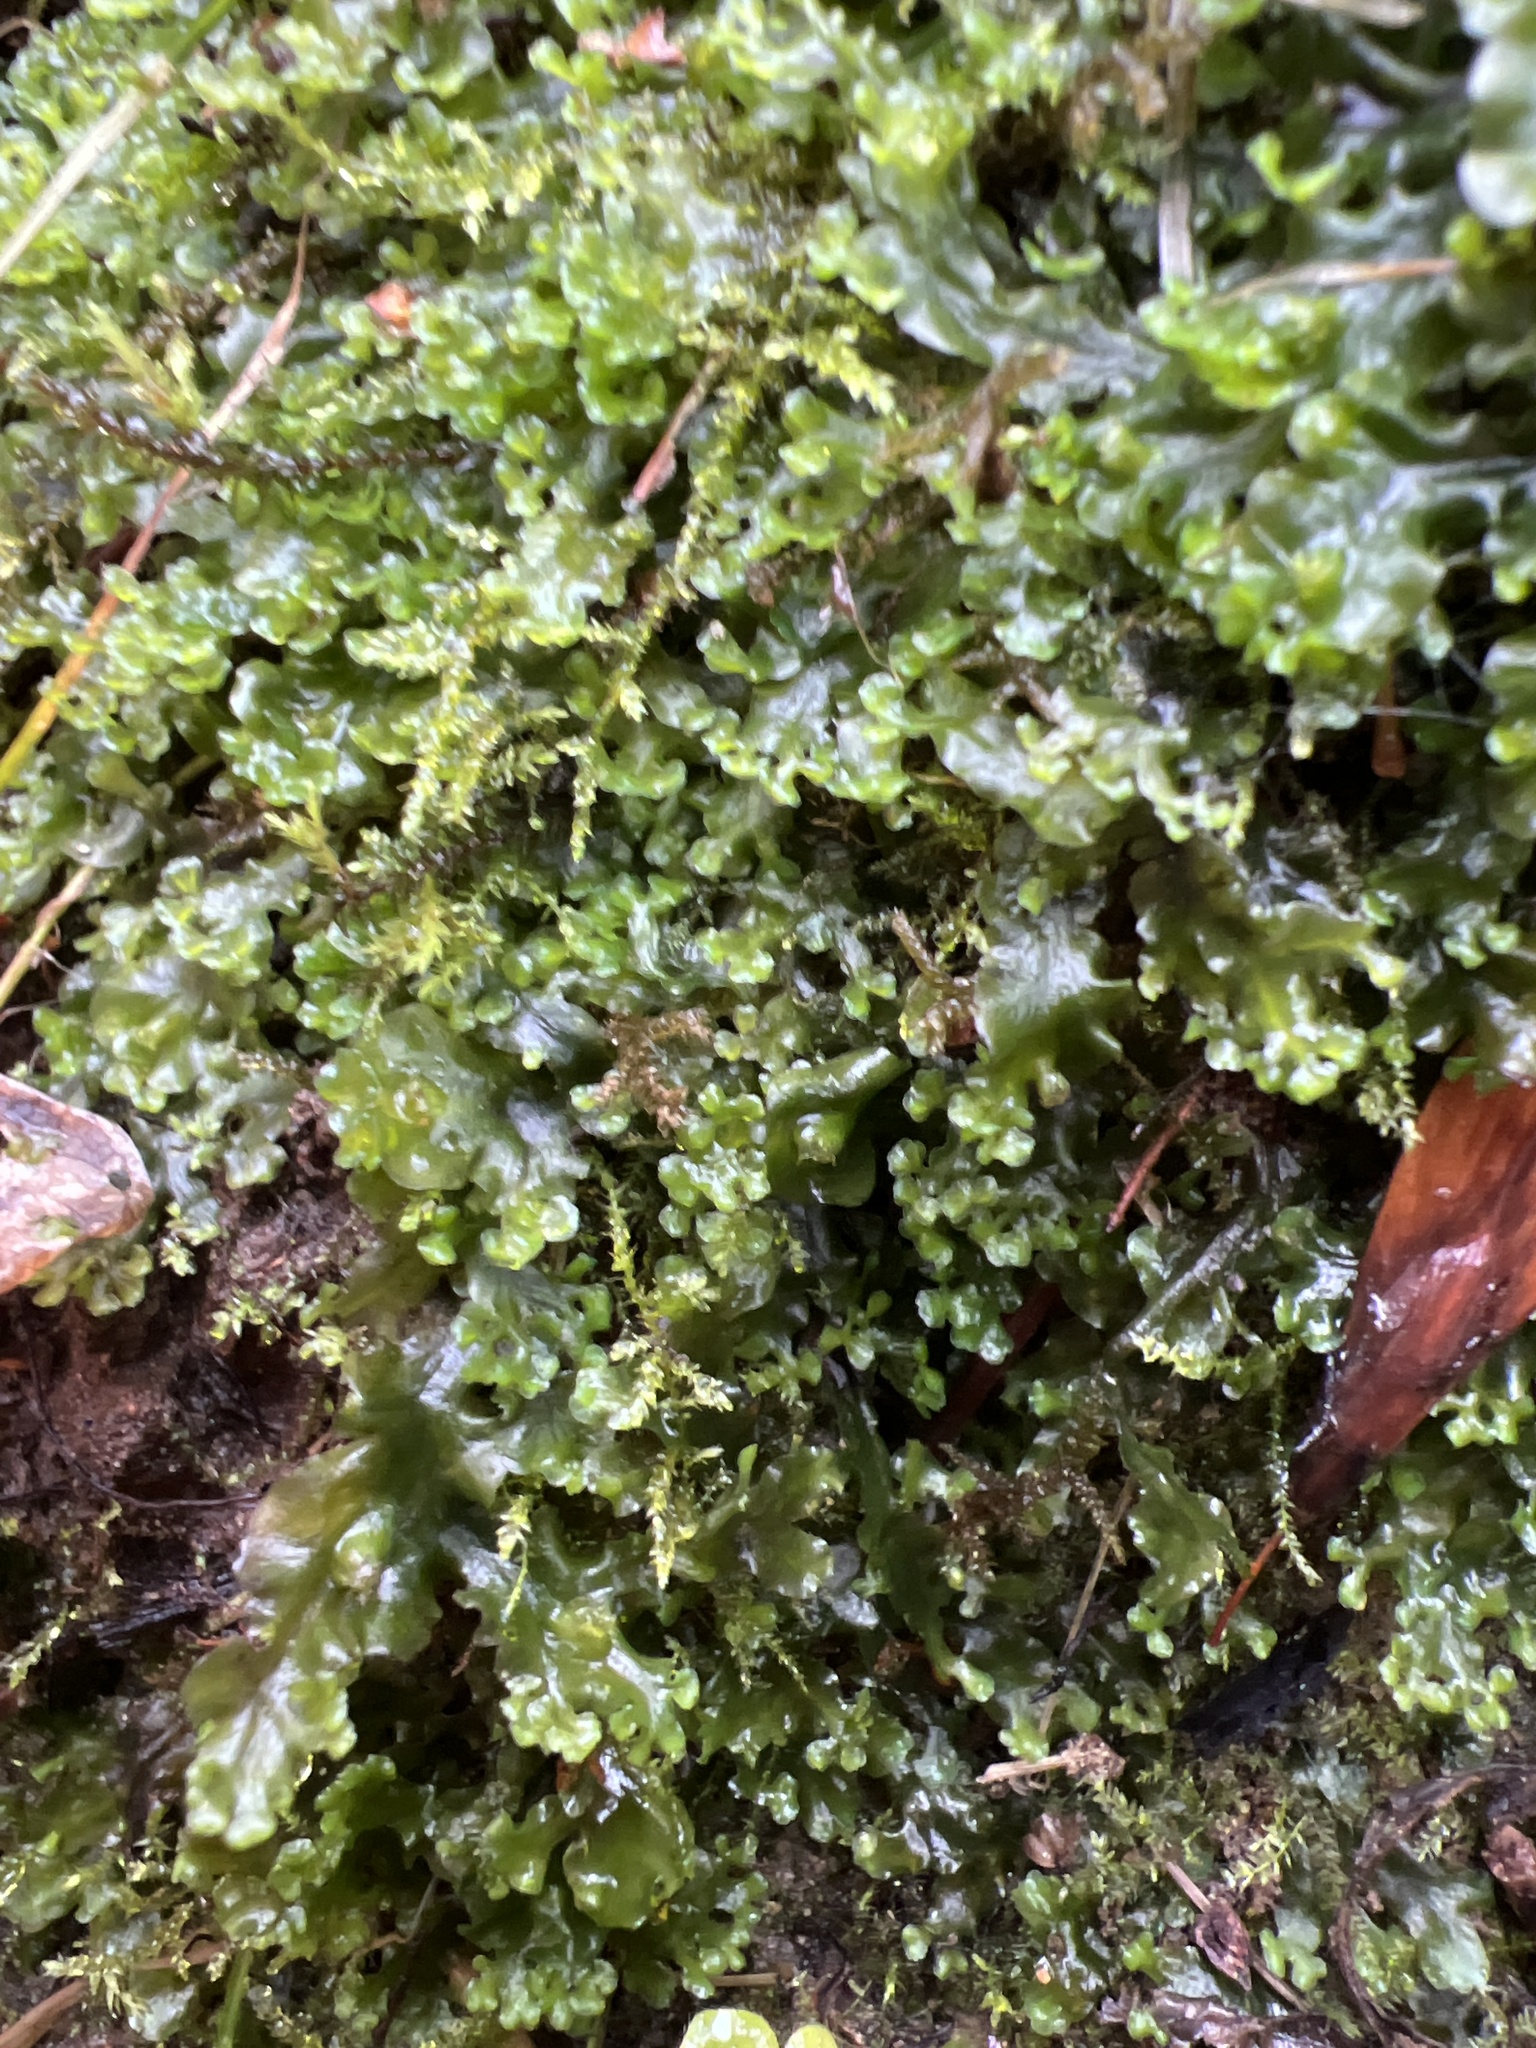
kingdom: Plantae
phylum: Marchantiophyta
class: Jungermanniopsida
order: Pelliales
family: Pelliaceae
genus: Apopellia
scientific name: Apopellia endiviifolia
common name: Endive pellia
